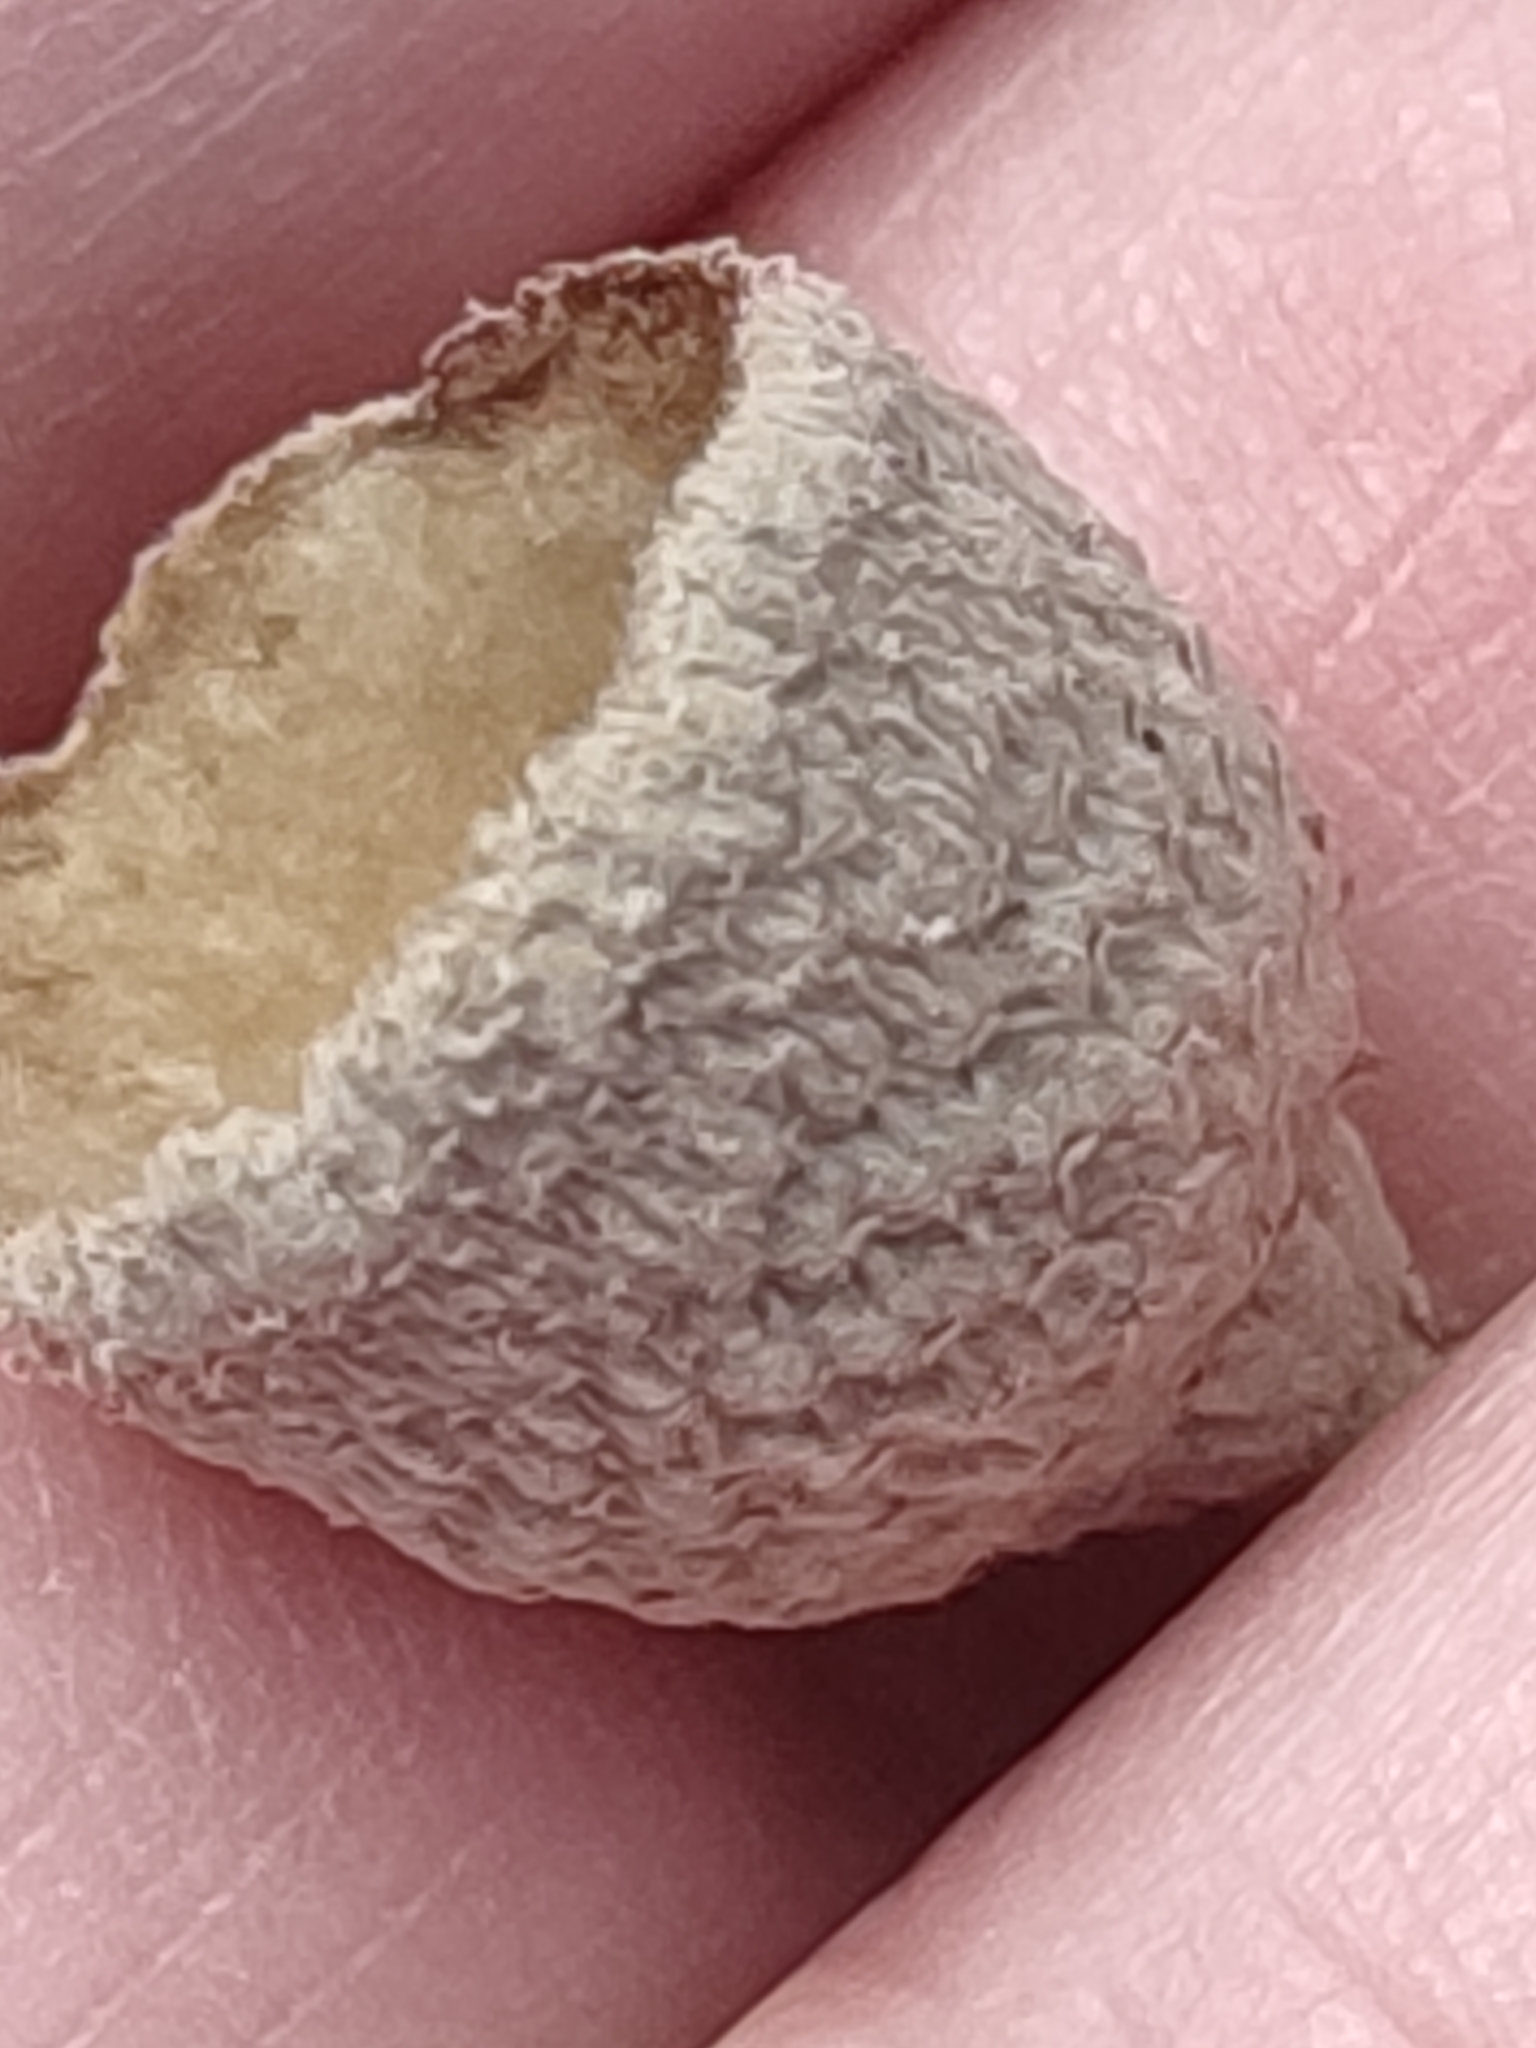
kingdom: Plantae
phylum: Tracheophyta
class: Magnoliopsida
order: Fagales
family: Fagaceae
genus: Quercus
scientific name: Quercus ilex
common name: Evergreen oak
